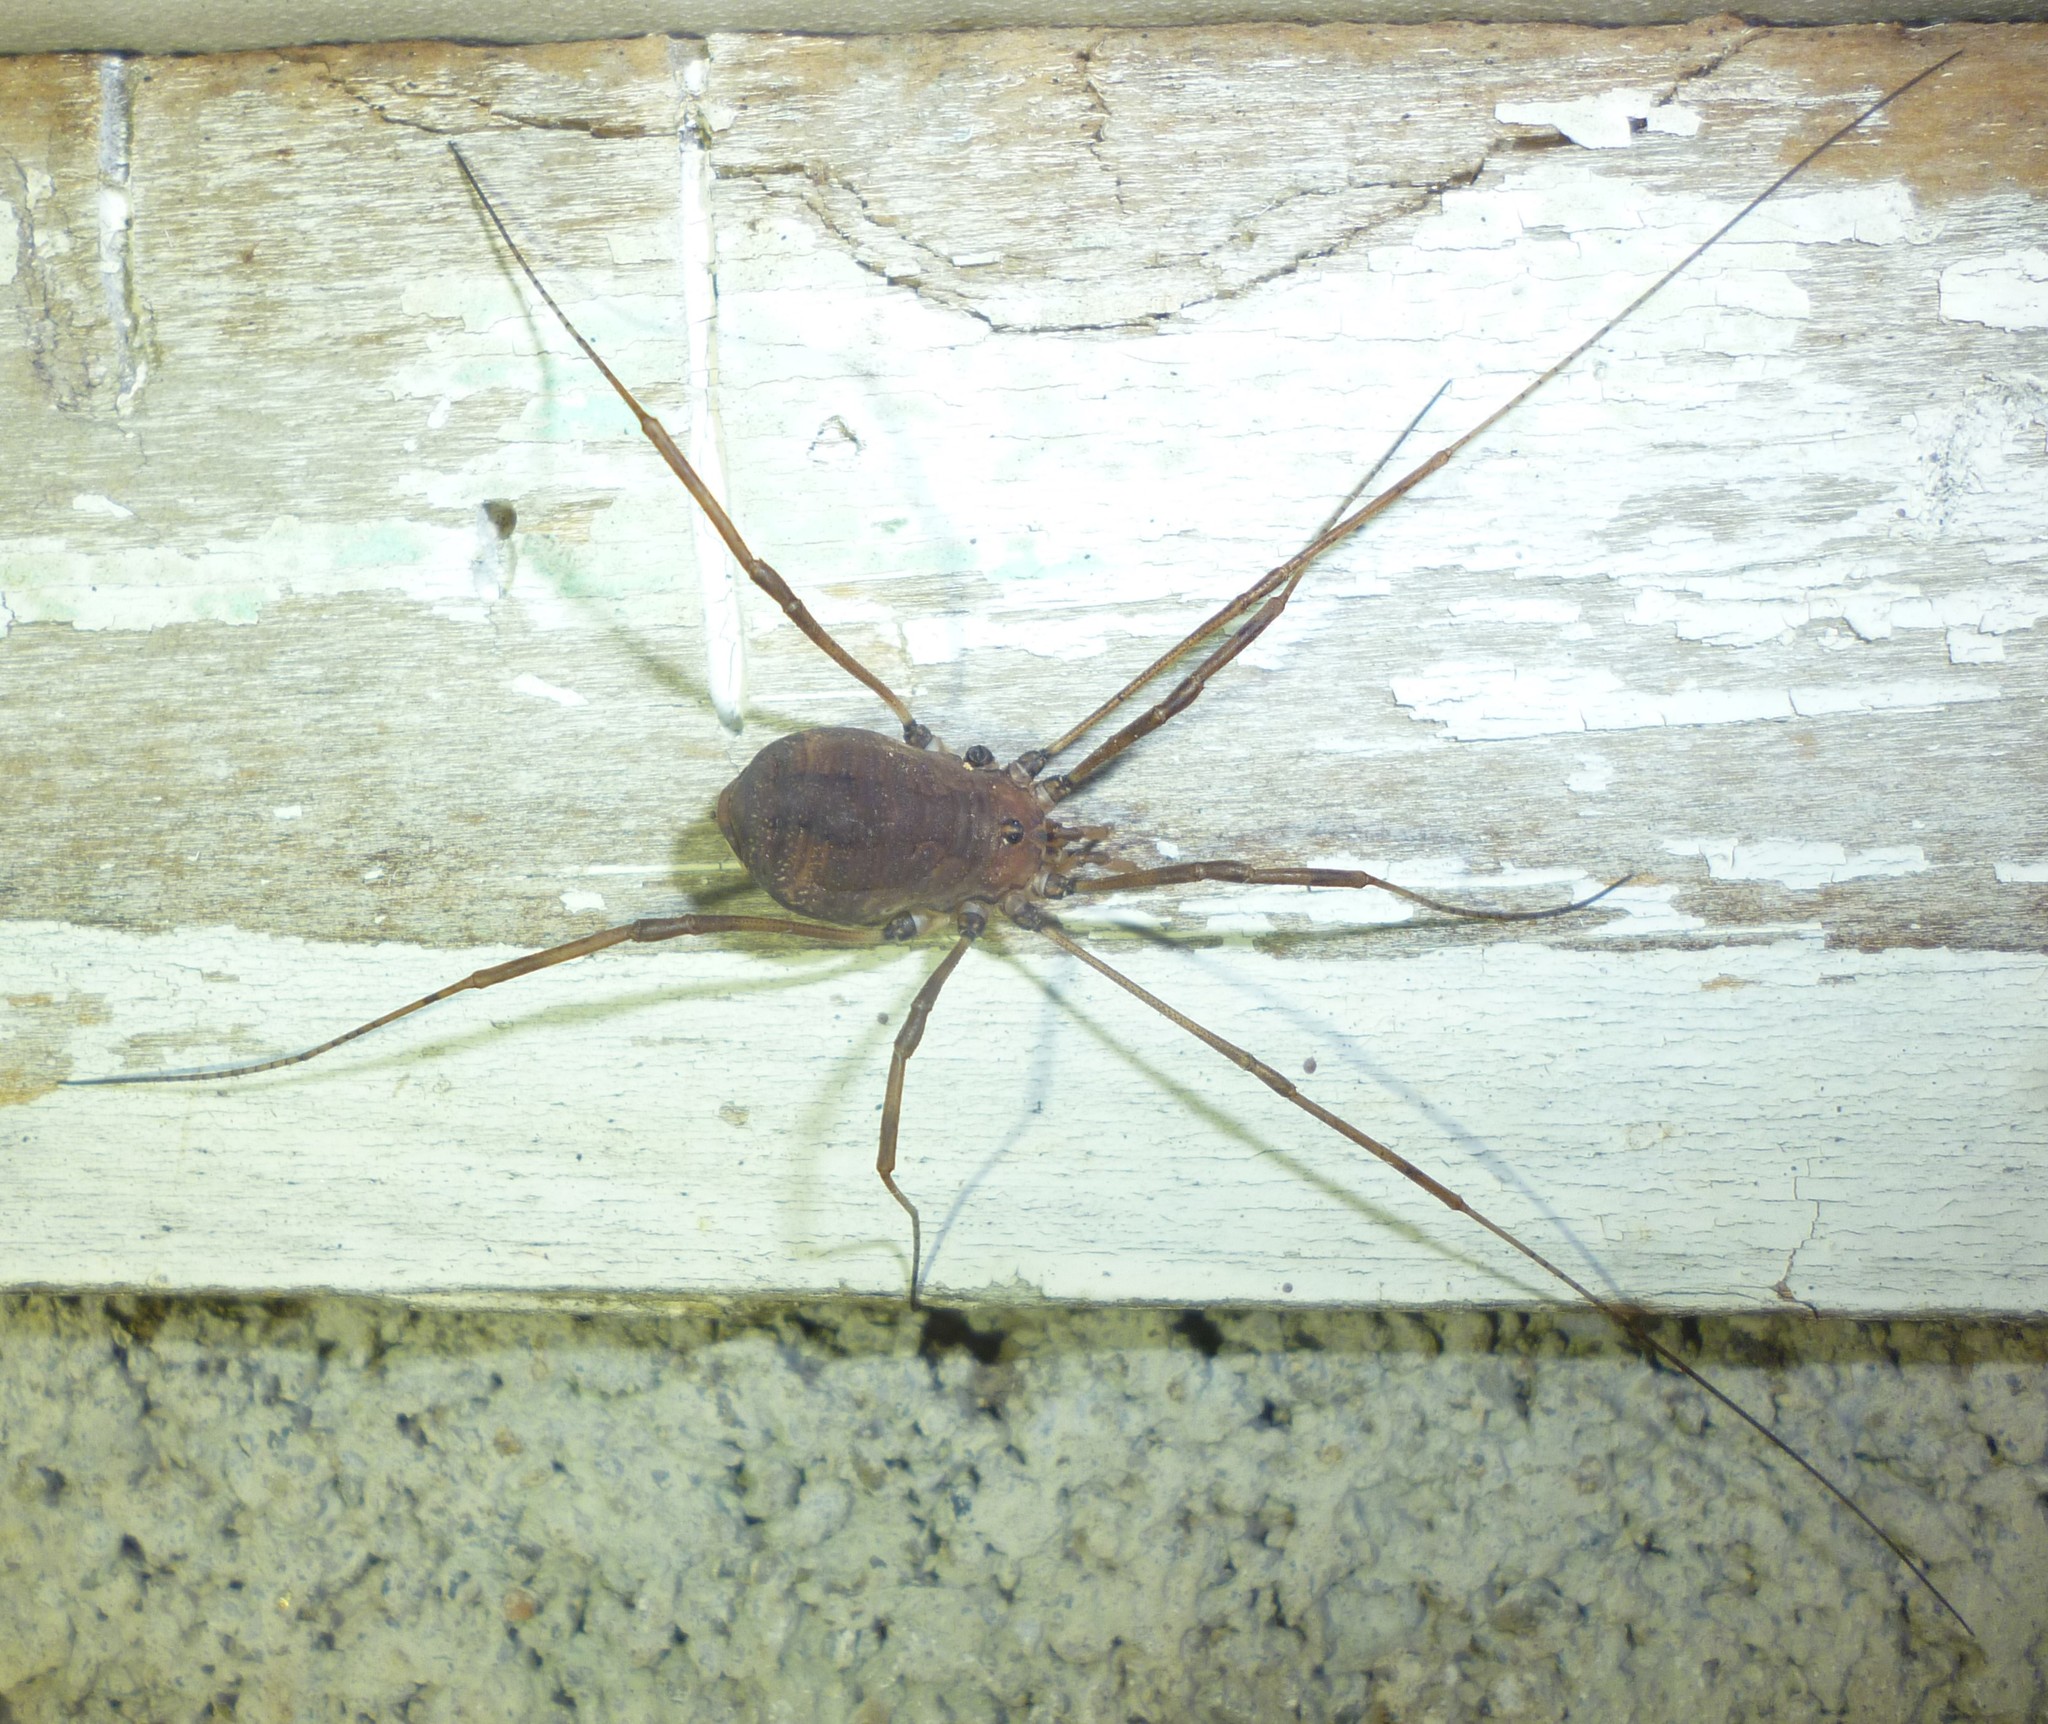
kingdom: Animalia
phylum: Arthropoda
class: Arachnida
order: Opiliones
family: Sclerosomatidae
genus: Hadrobunus
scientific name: Hadrobunus maculosus
